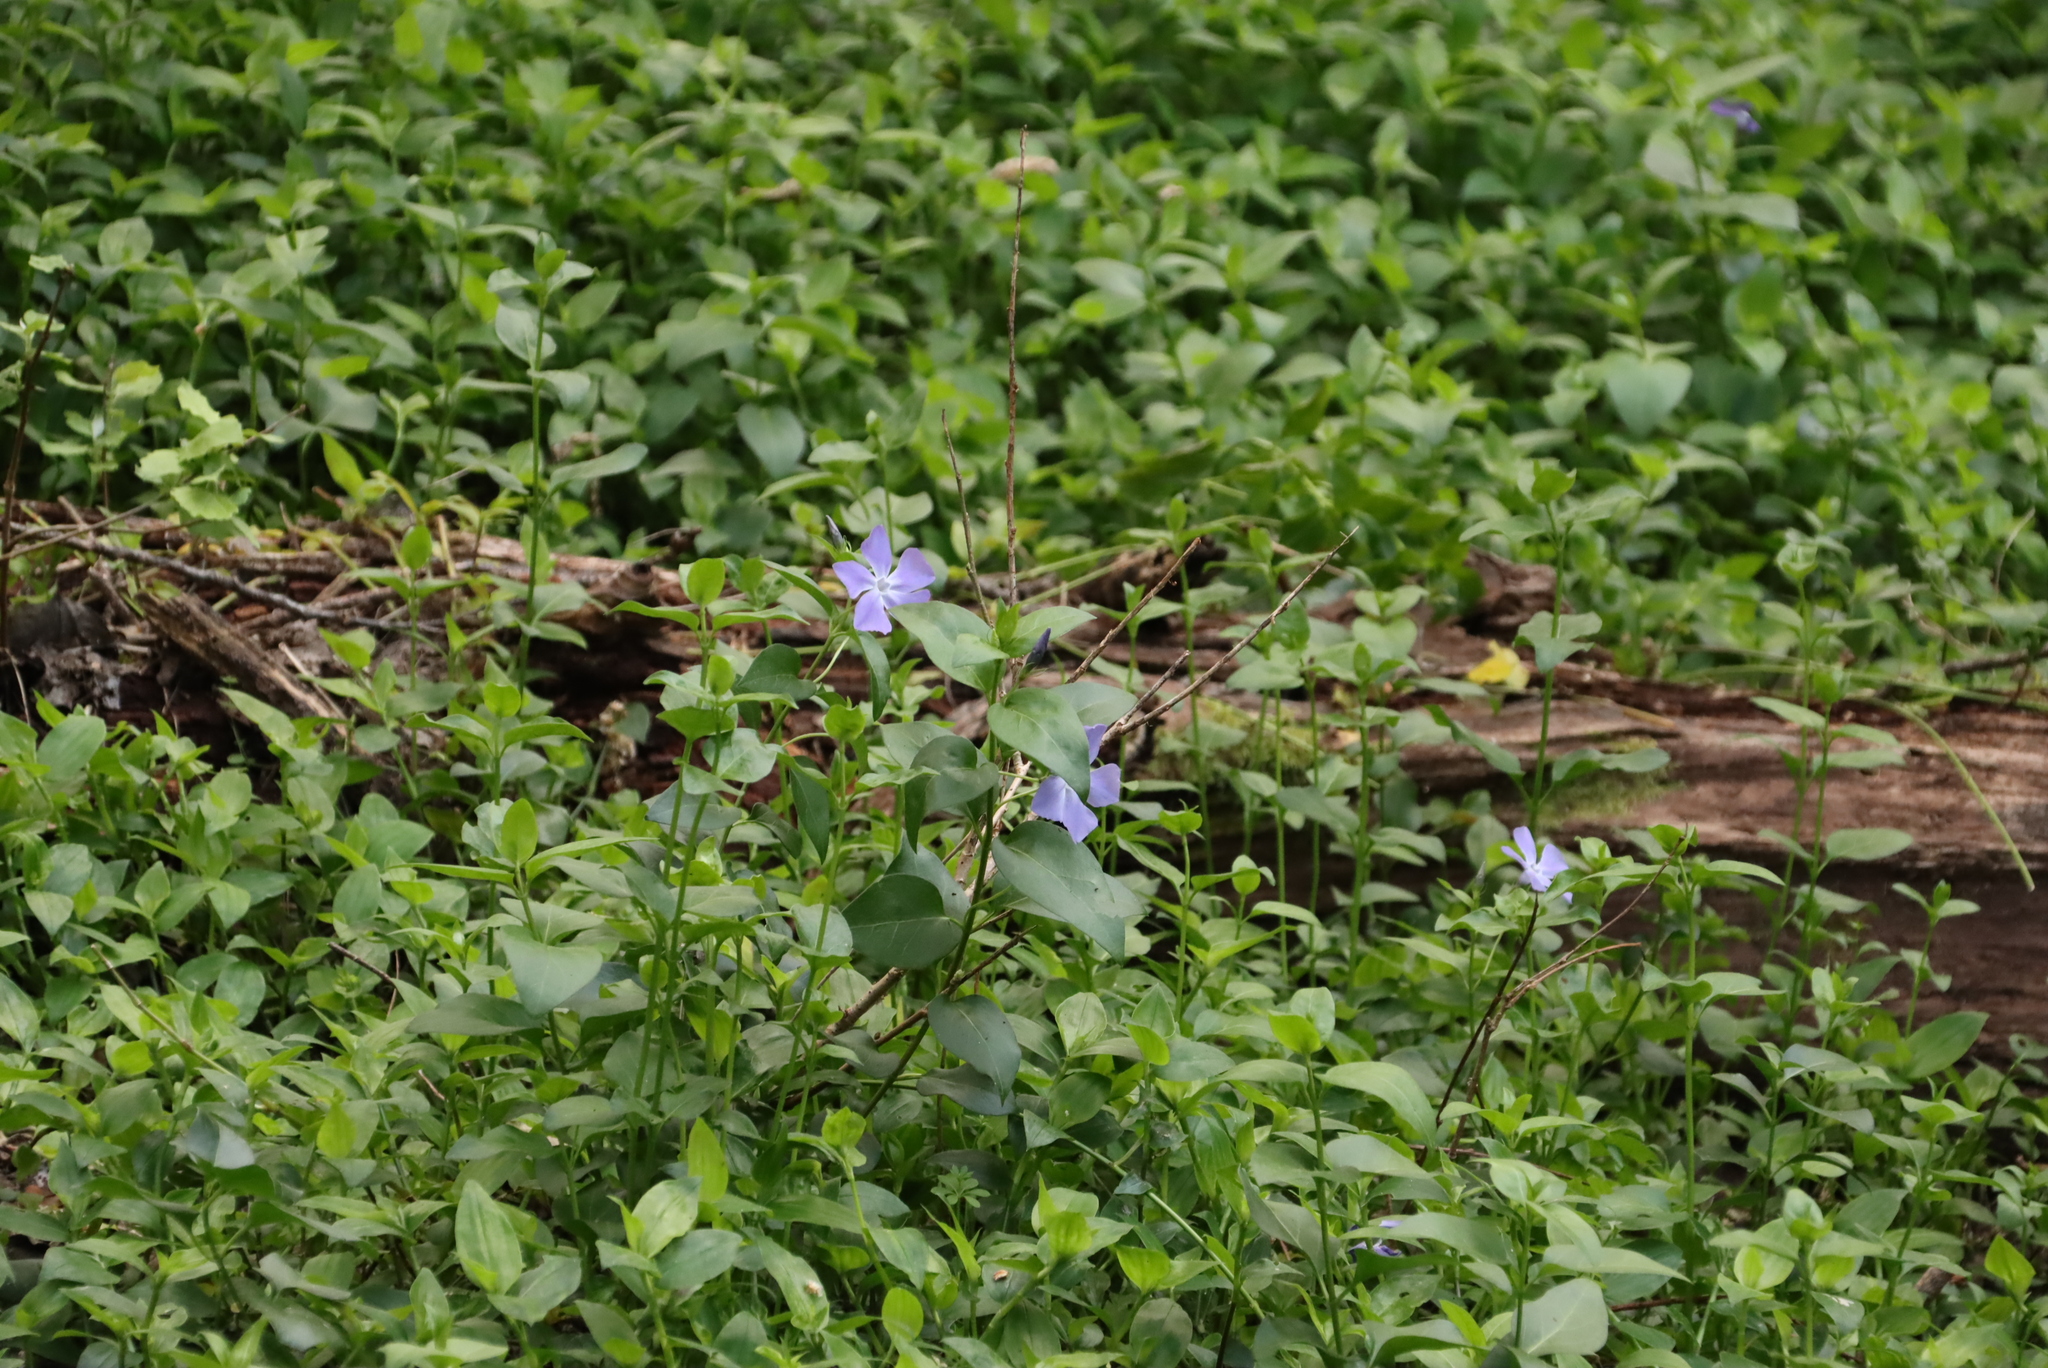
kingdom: Plantae
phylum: Tracheophyta
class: Magnoliopsida
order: Gentianales
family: Apocynaceae
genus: Vinca
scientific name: Vinca major
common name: Greater periwinkle
